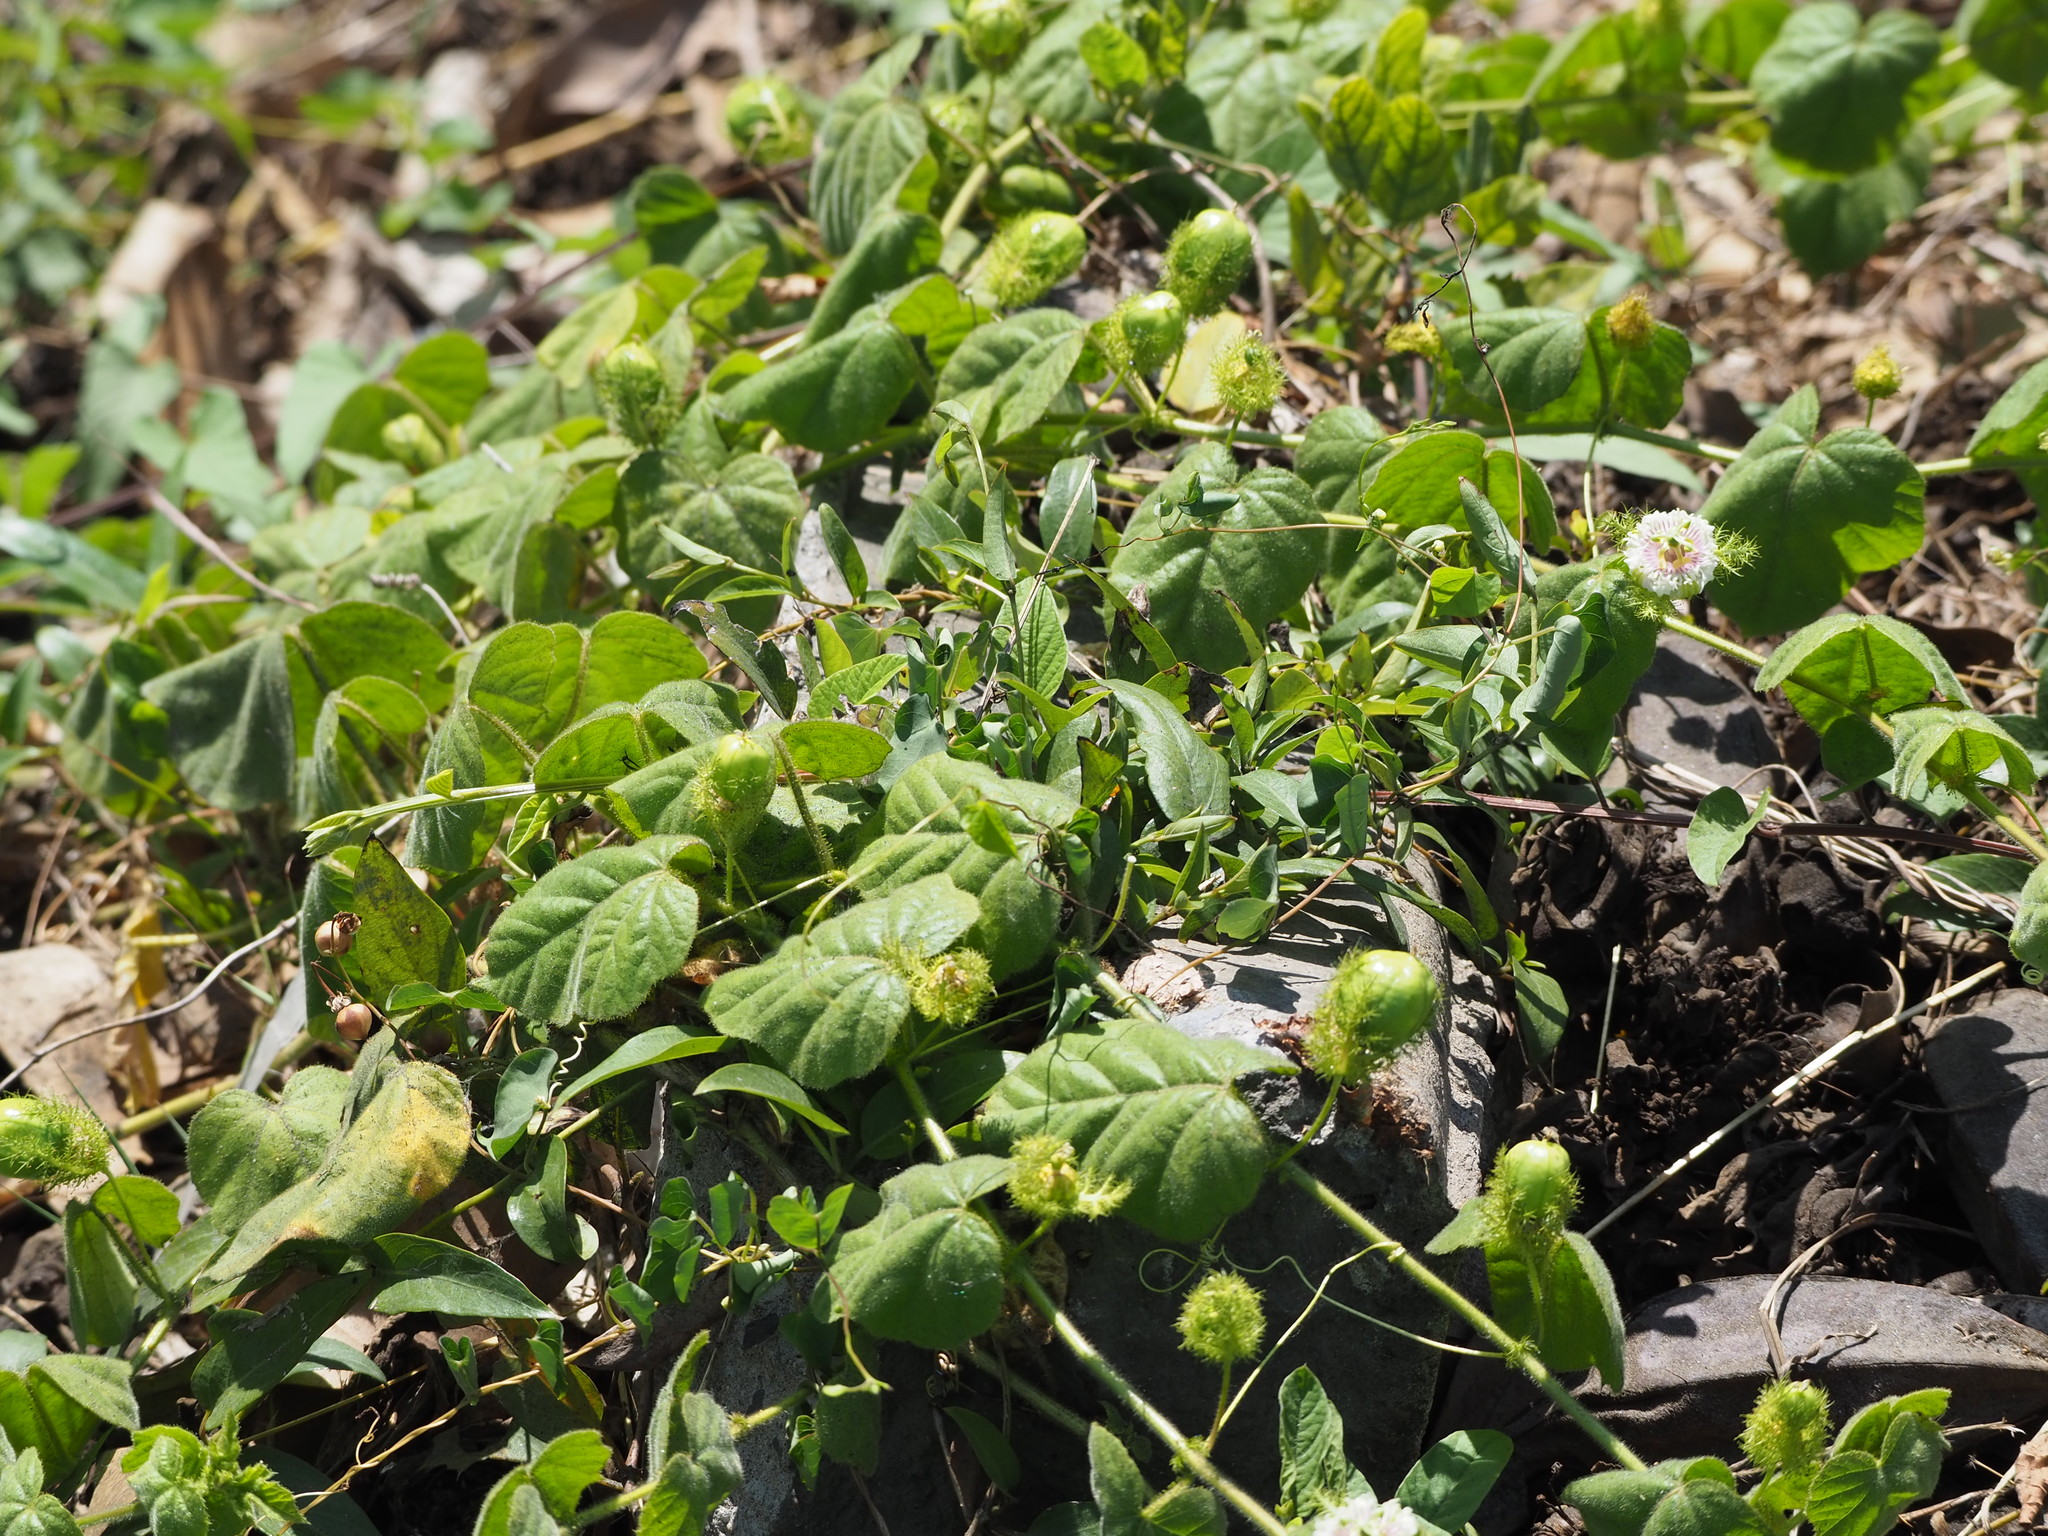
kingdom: Plantae
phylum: Tracheophyta
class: Magnoliopsida
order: Malpighiales
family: Passifloraceae
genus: Passiflora
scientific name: Passiflora vesicaria
